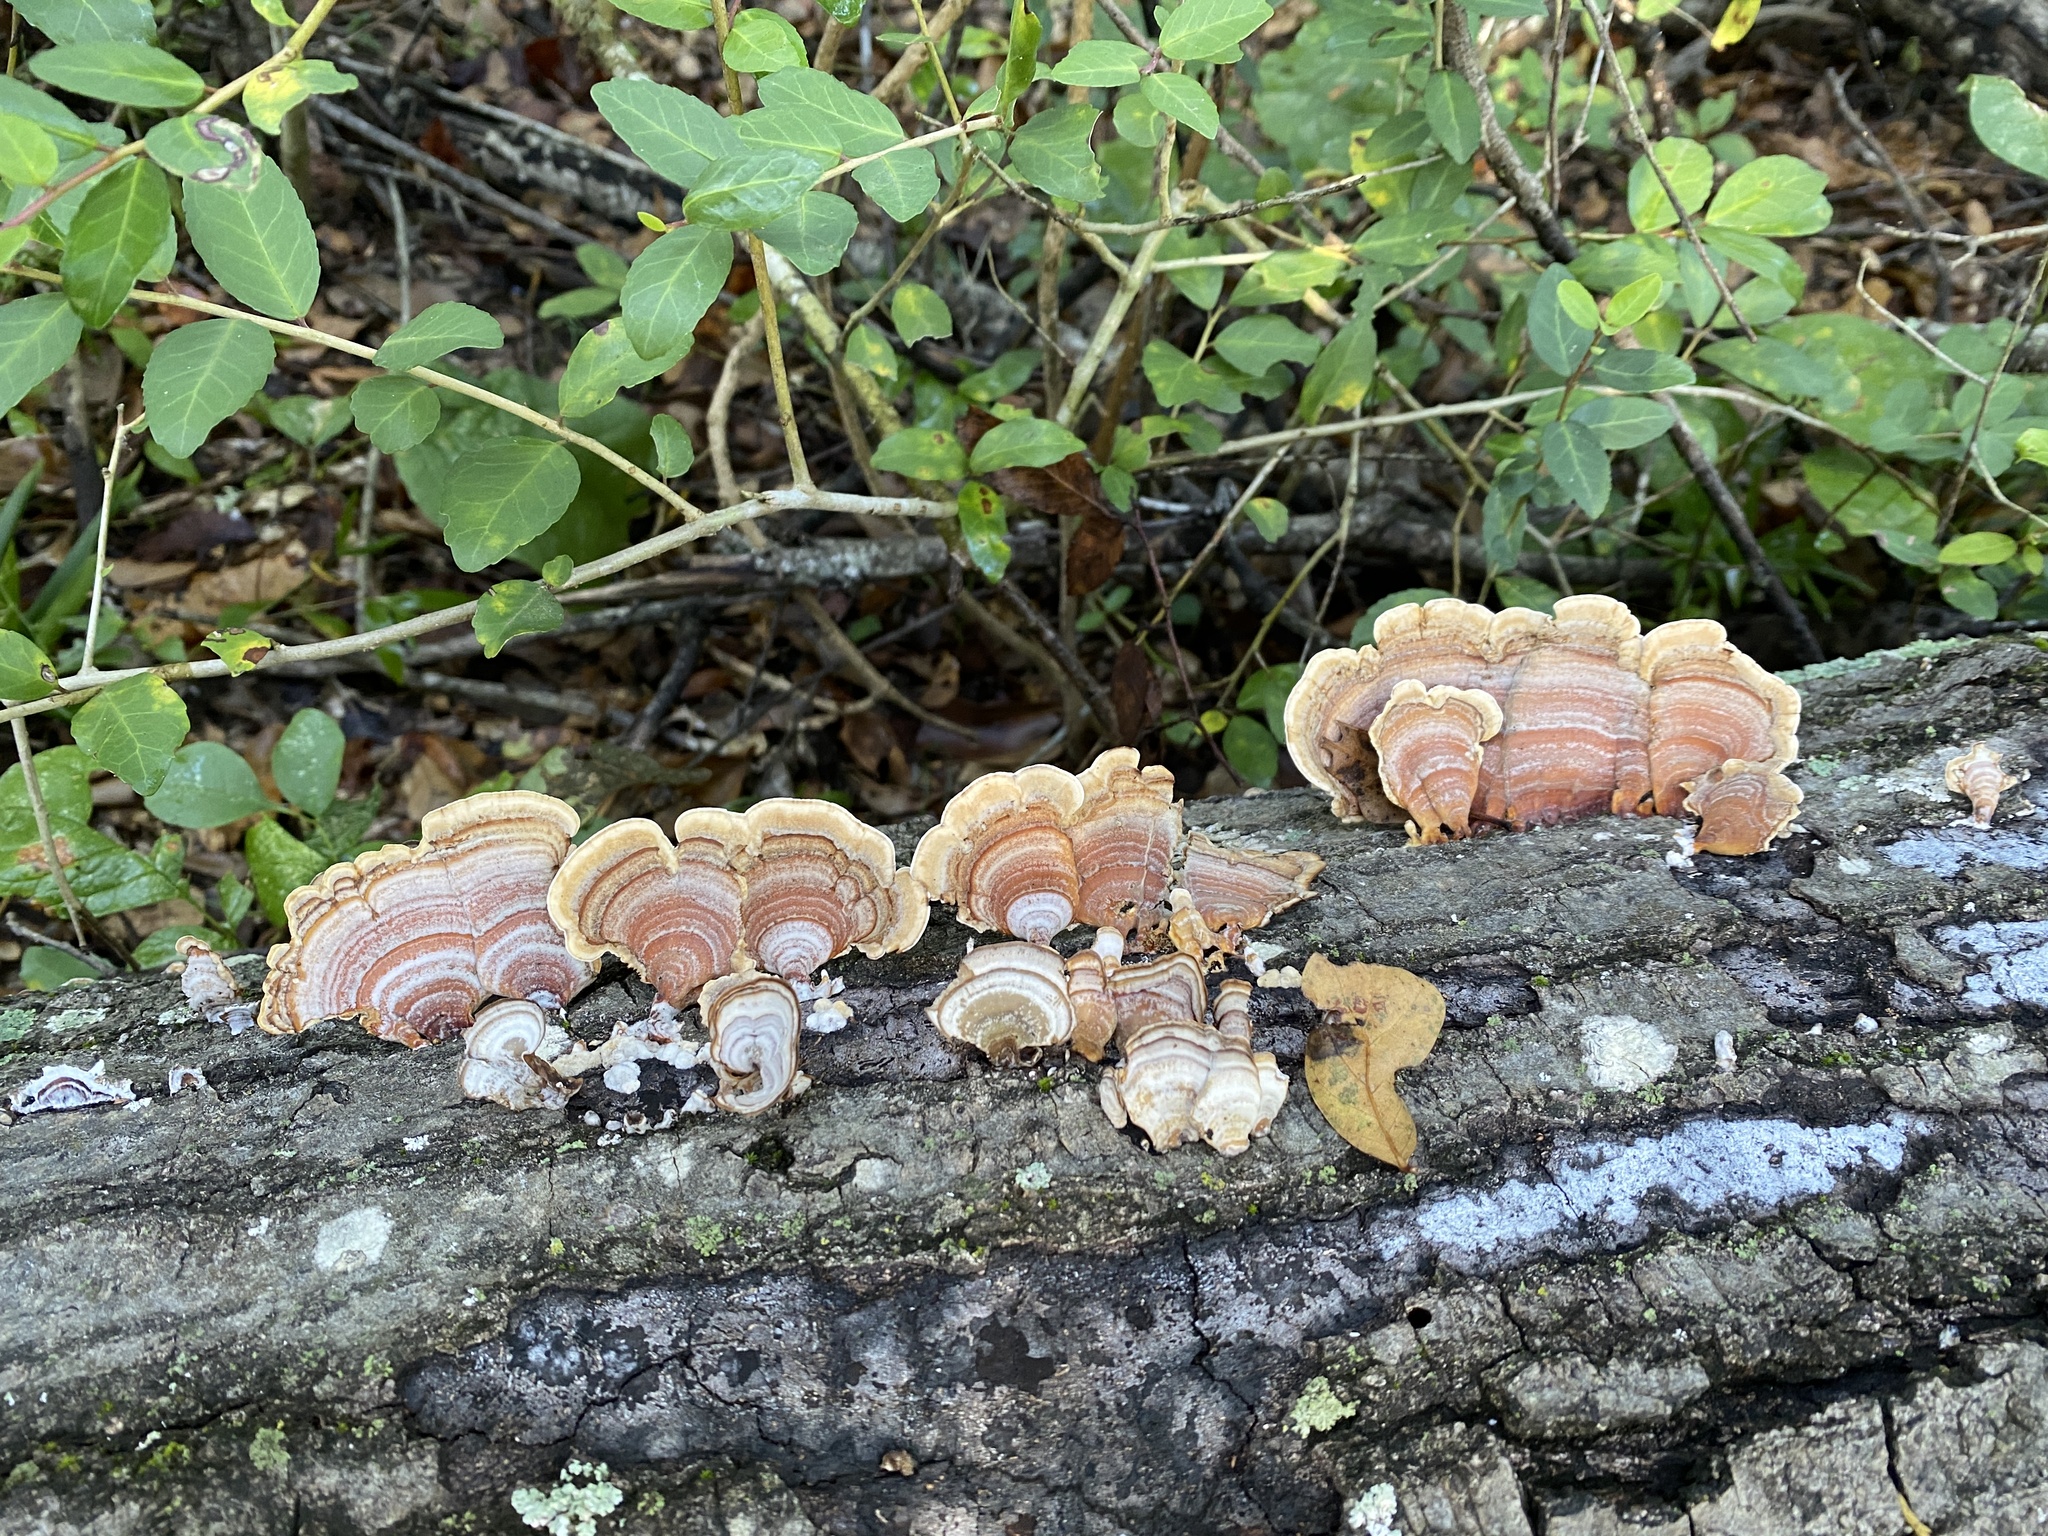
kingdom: Fungi
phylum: Basidiomycota
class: Agaricomycetes
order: Russulales
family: Stereaceae
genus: Stereum
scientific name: Stereum lobatum
